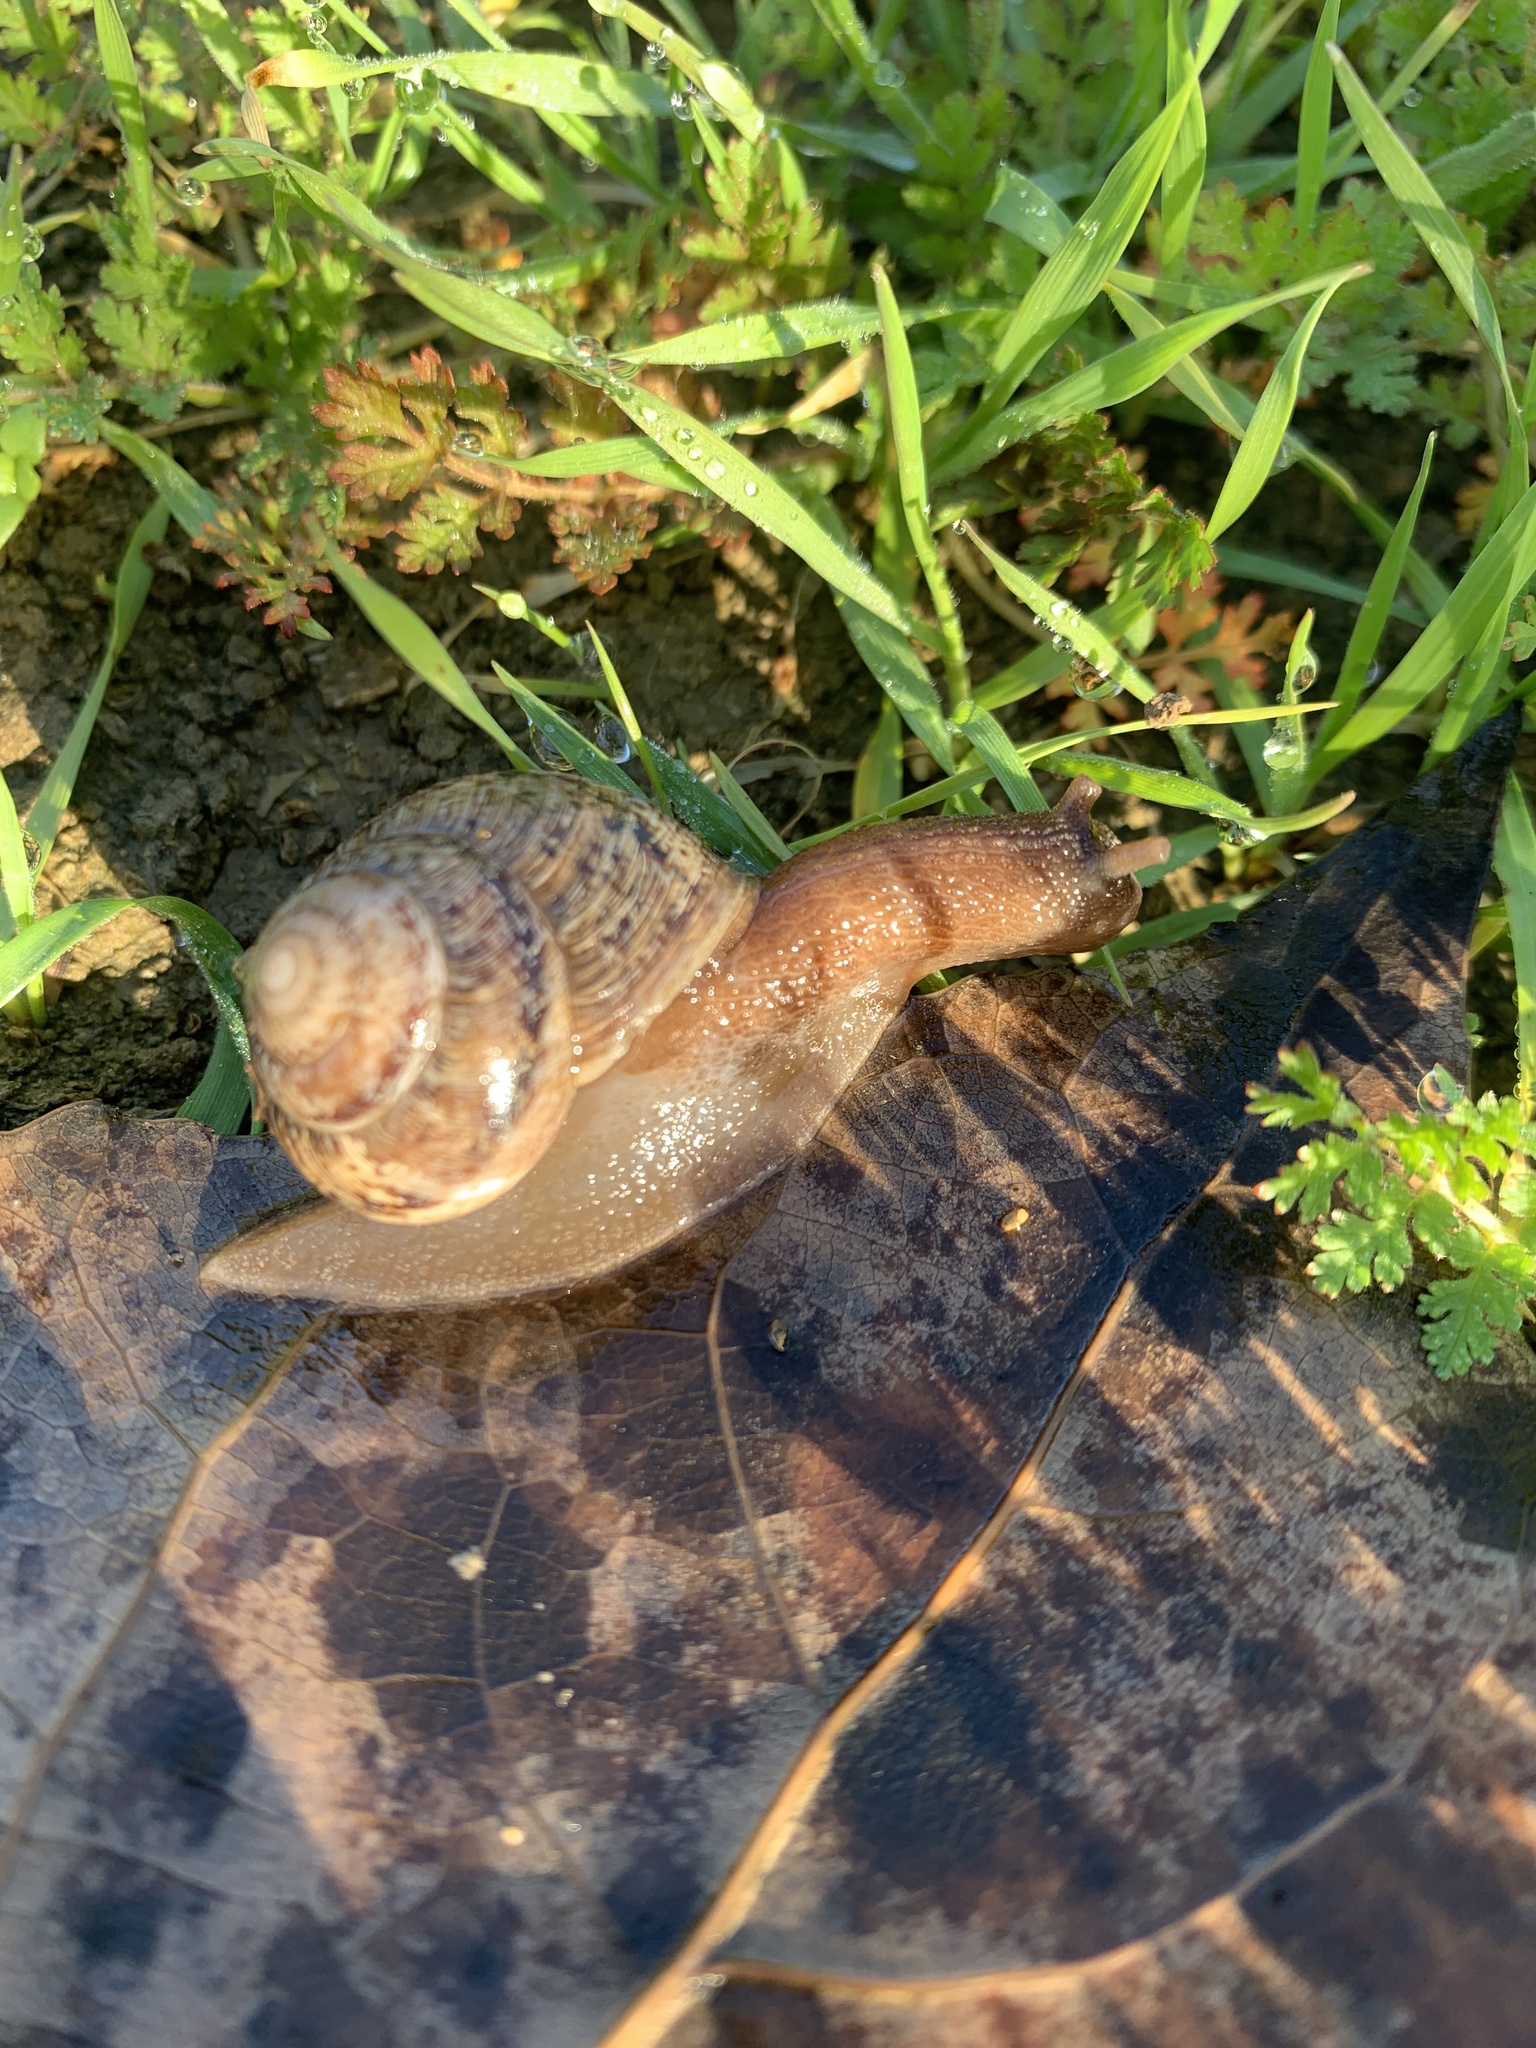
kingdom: Animalia
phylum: Mollusca
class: Gastropoda
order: Stylommatophora
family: Helicidae
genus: Cornu
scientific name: Cornu aspersum
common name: Brown garden snail
